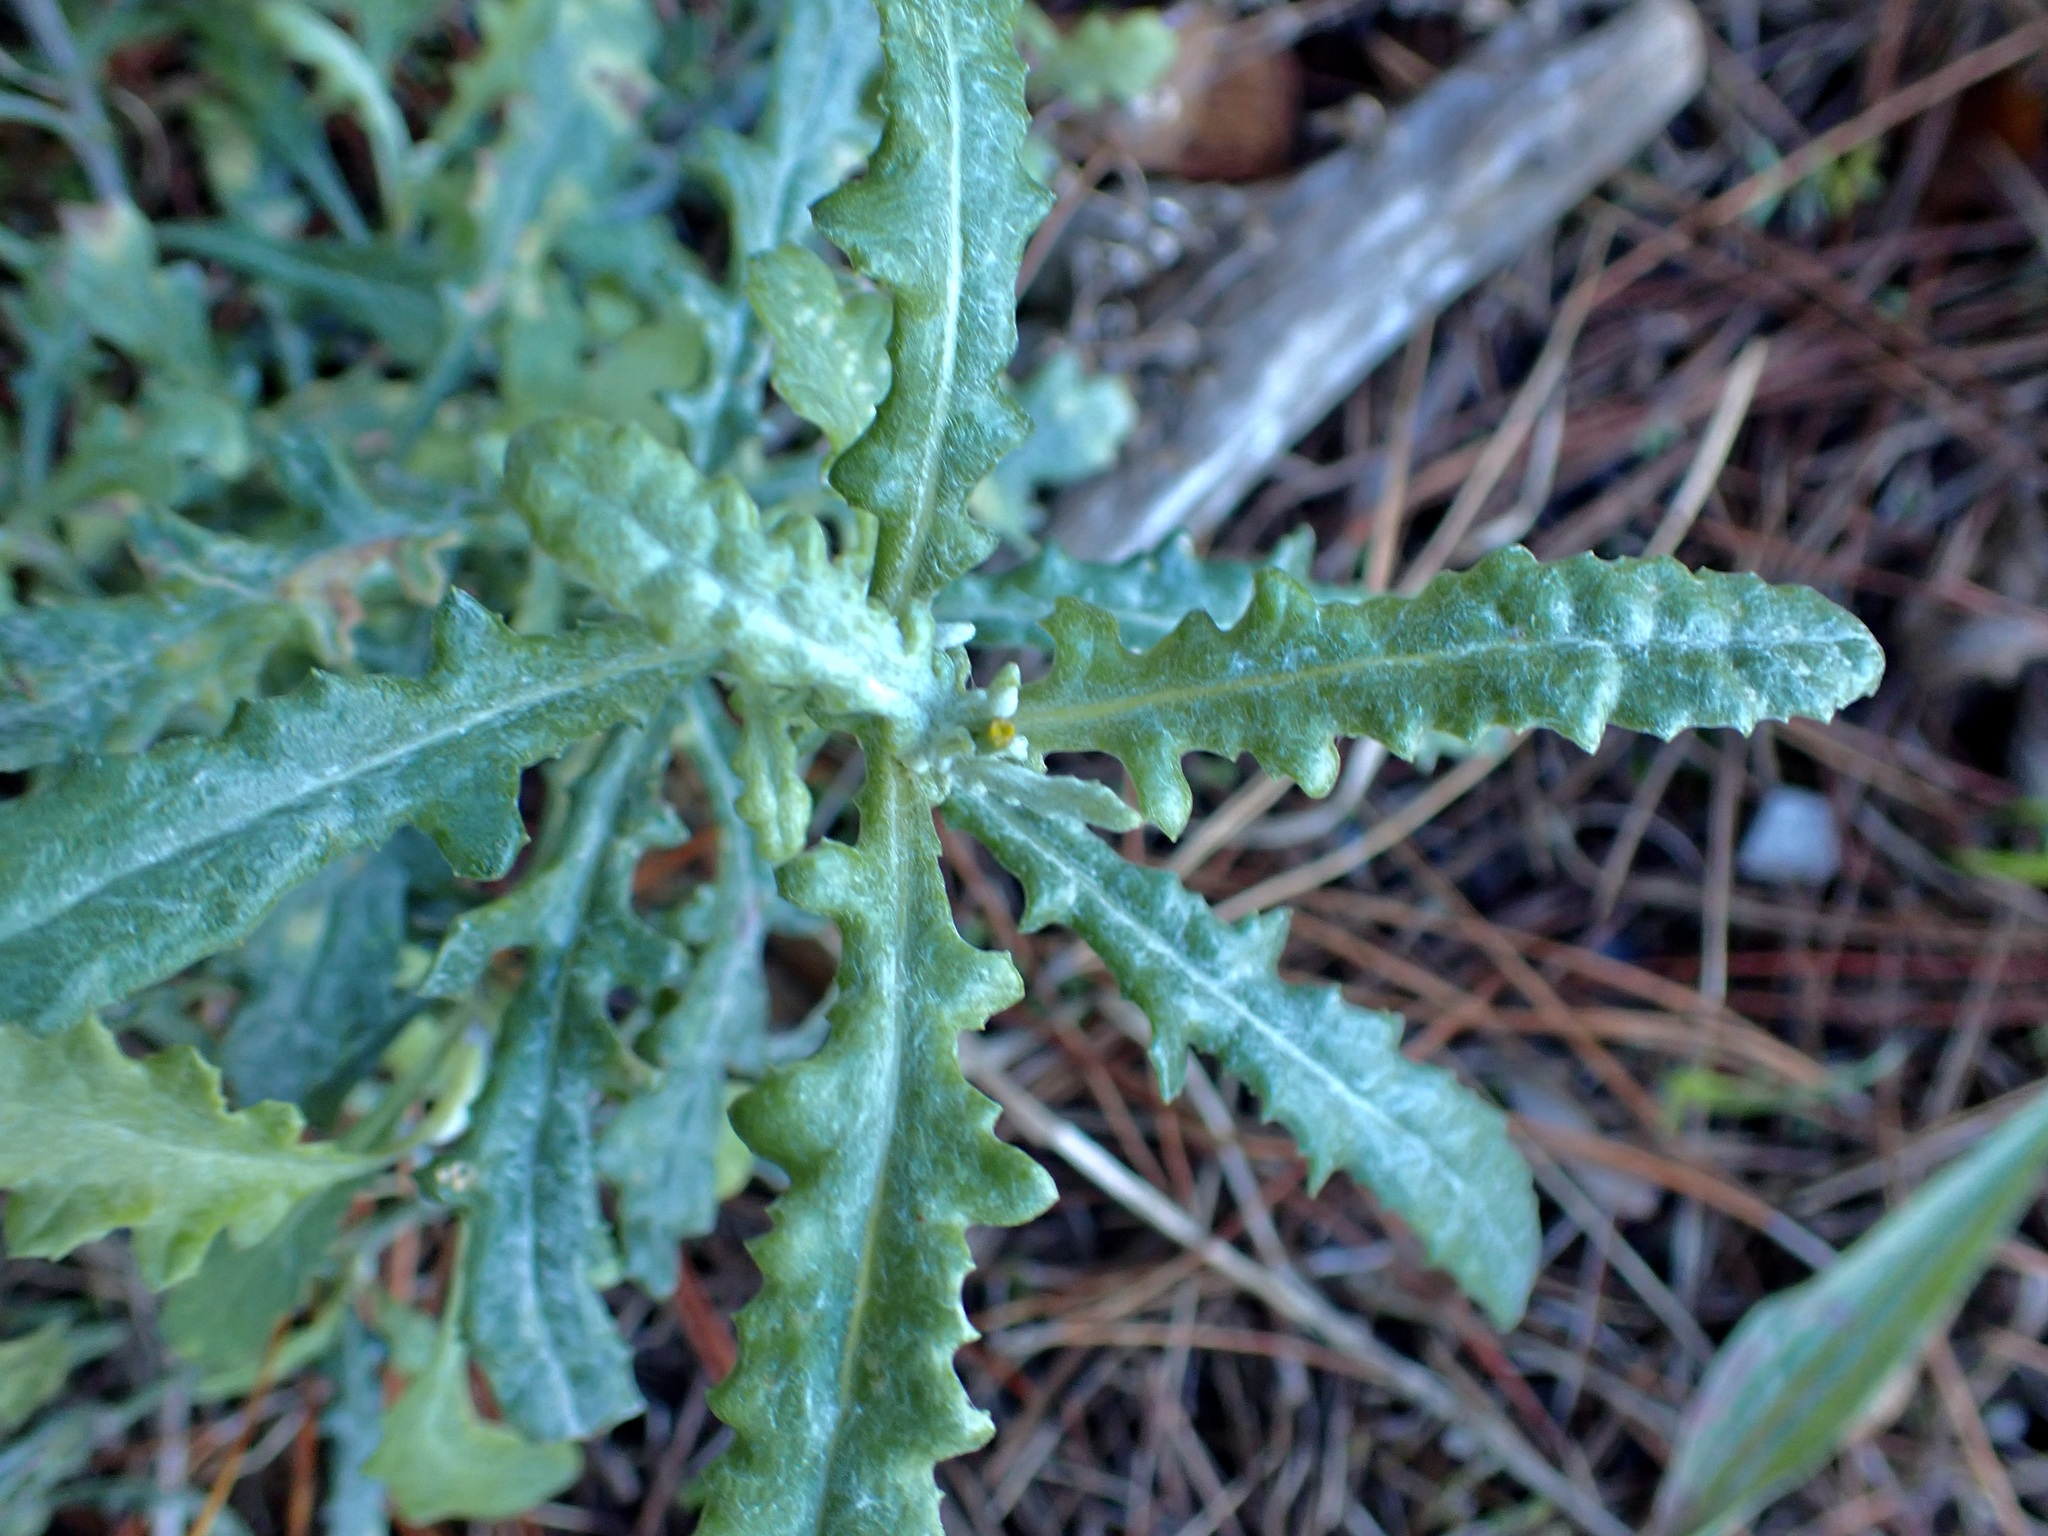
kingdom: Plantae
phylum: Tracheophyta
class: Magnoliopsida
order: Asterales
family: Asteraceae
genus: Senecio
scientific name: Senecio glomeratus
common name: Cutleaf burnweed
